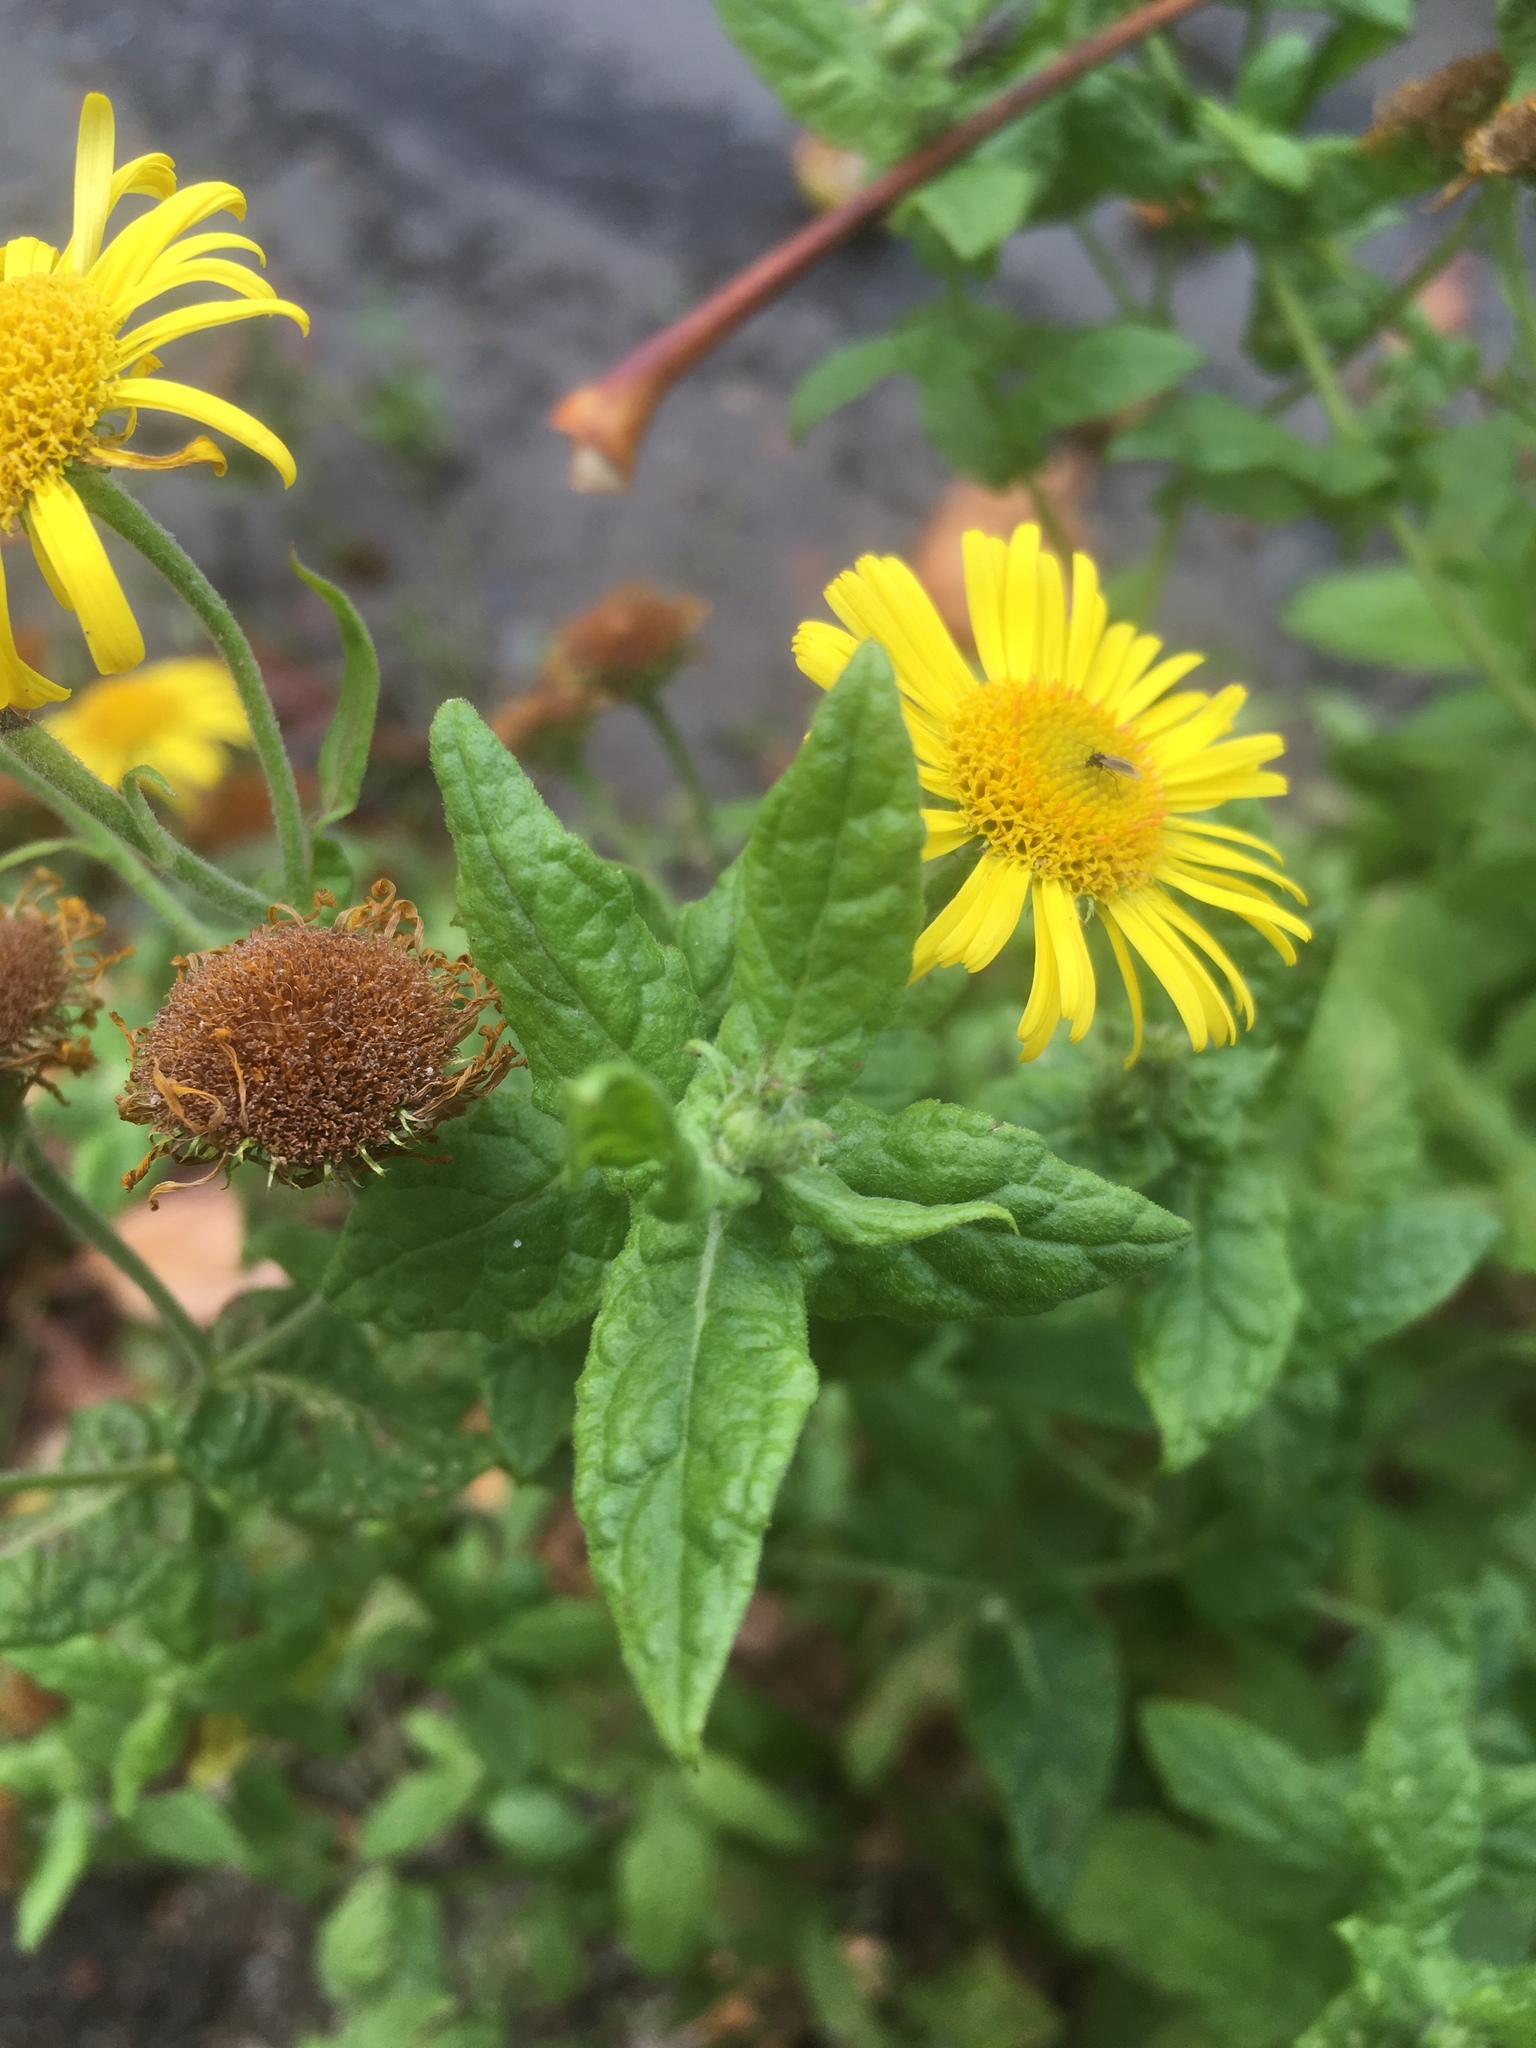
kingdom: Plantae
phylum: Tracheophyta
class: Magnoliopsida
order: Asterales
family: Asteraceae
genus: Pulicaria
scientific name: Pulicaria dysenterica
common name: Common fleabane
